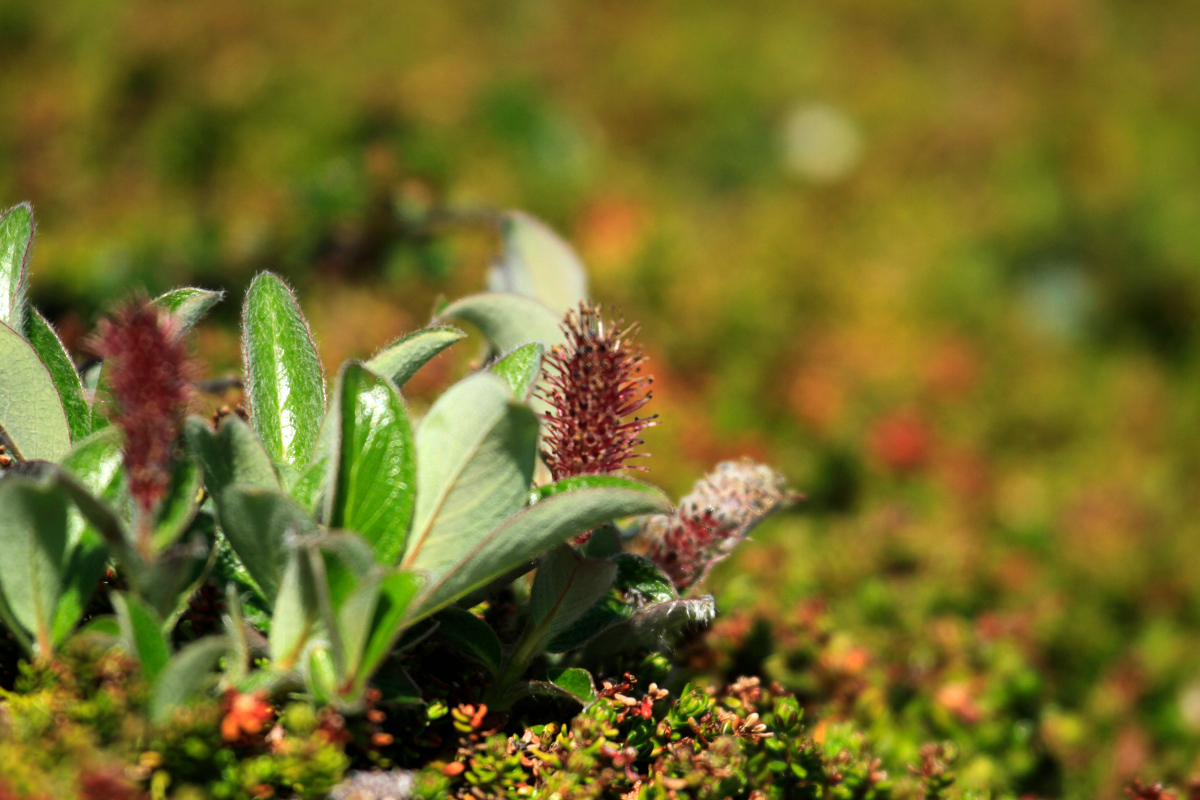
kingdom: Plantae
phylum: Tracheophyta
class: Magnoliopsida
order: Malpighiales
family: Salicaceae
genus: Salix
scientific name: Salix arctica
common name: Arctic willow
